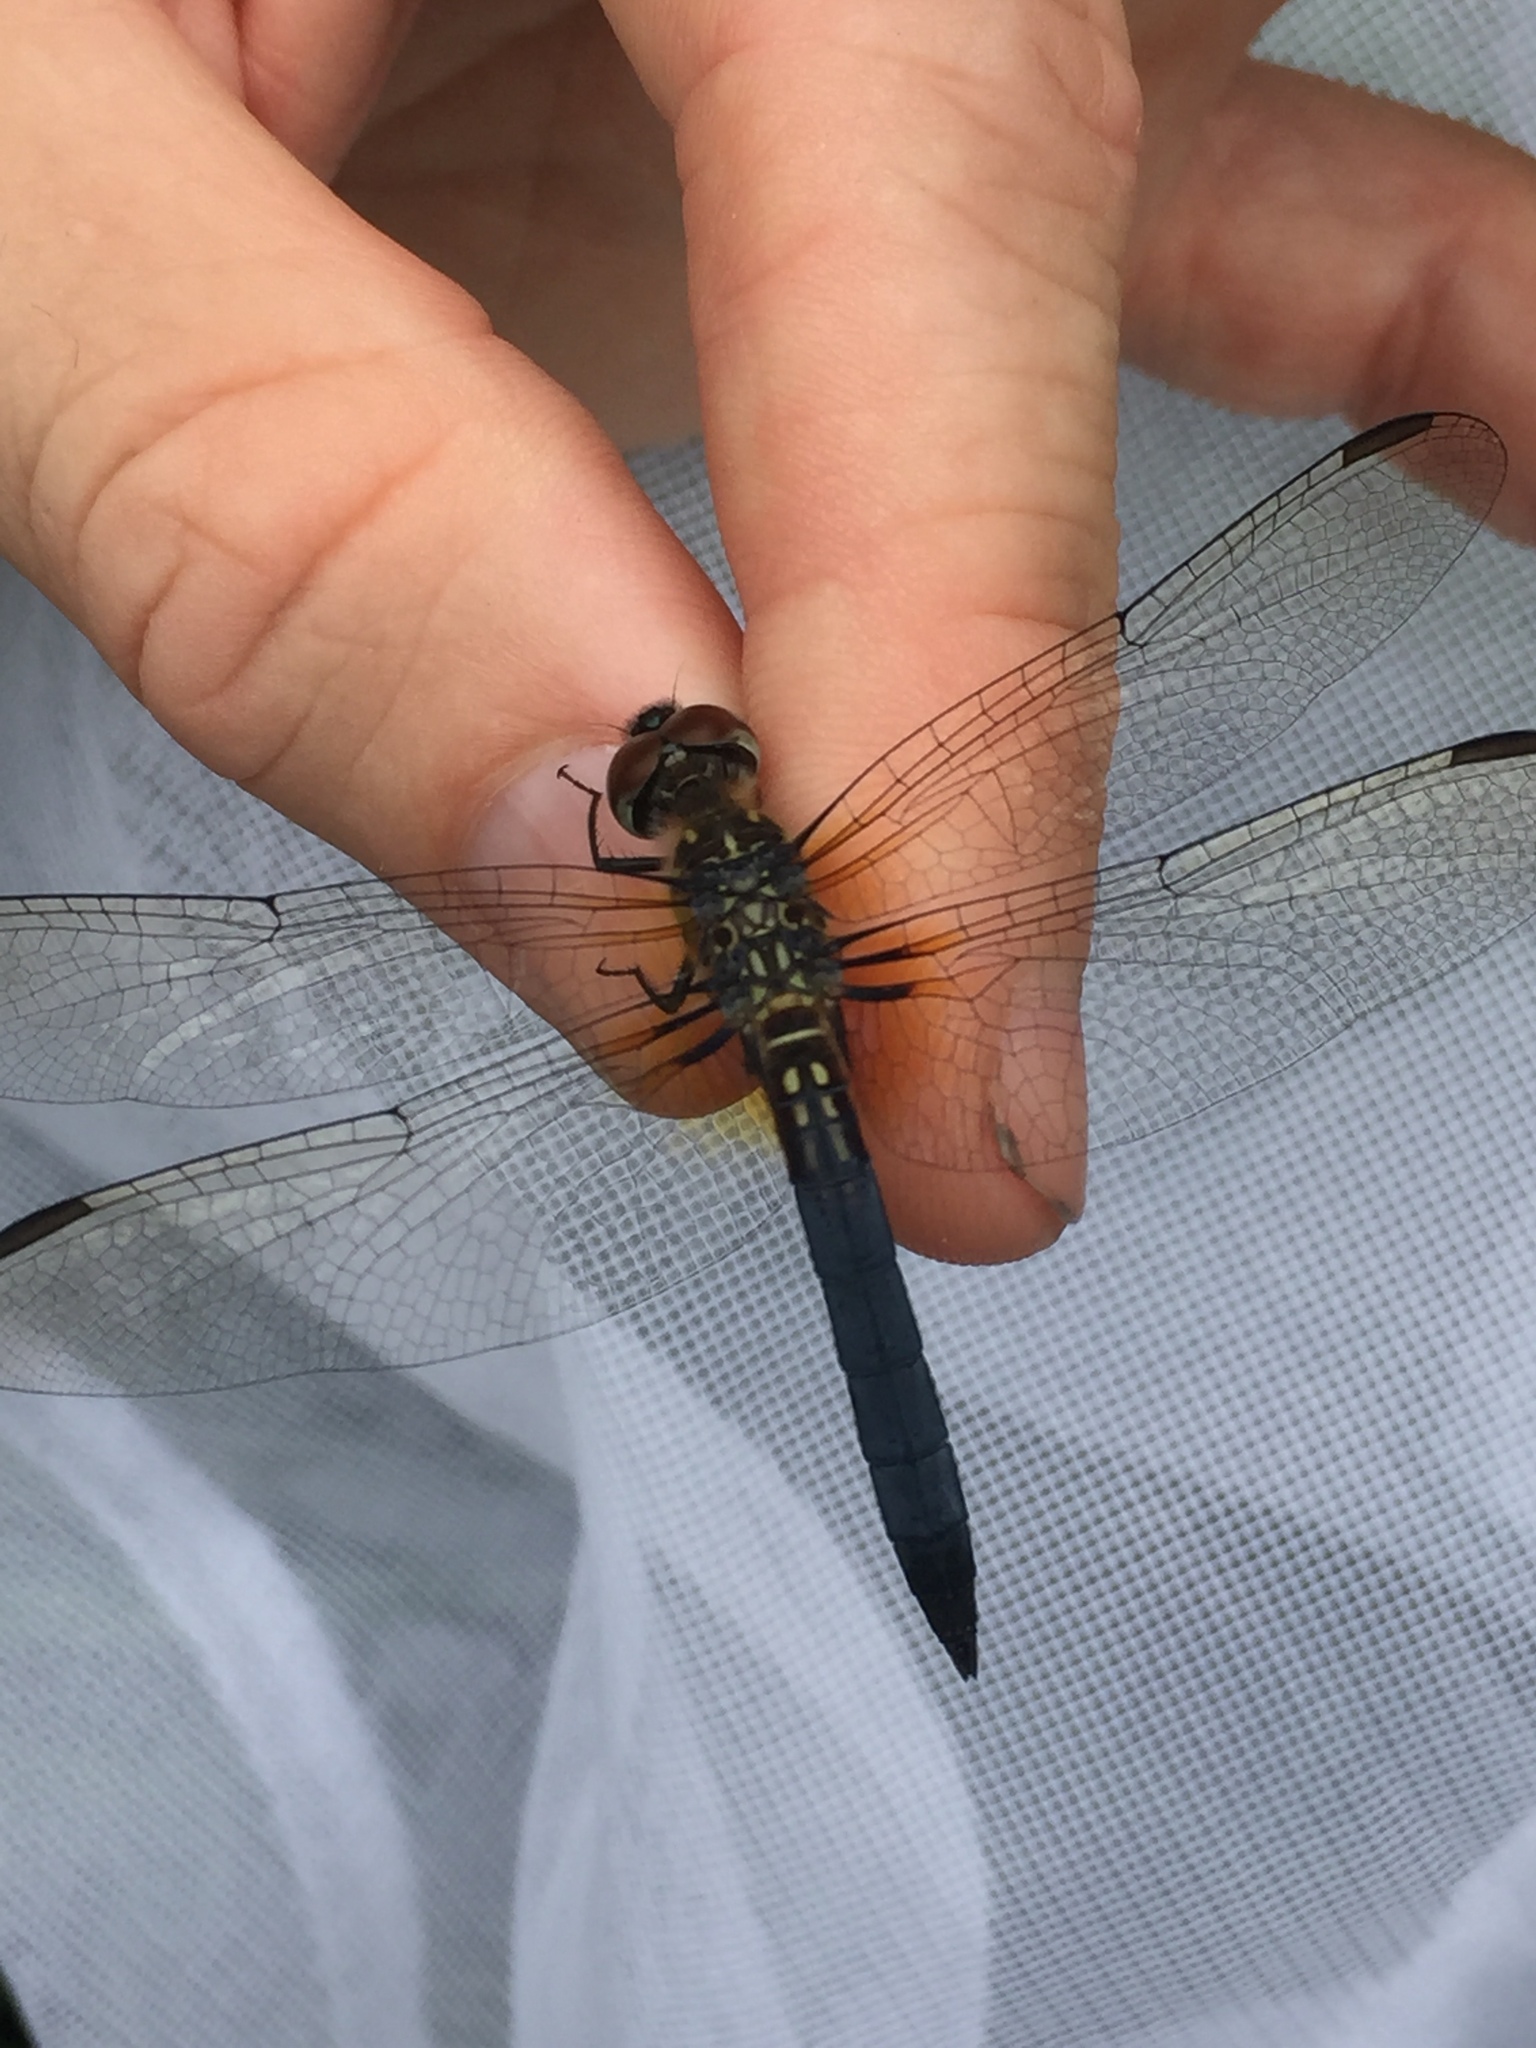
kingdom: Animalia
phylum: Arthropoda
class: Insecta
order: Odonata
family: Libellulidae
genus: Pachydiplax
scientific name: Pachydiplax longipennis
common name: Blue dasher
